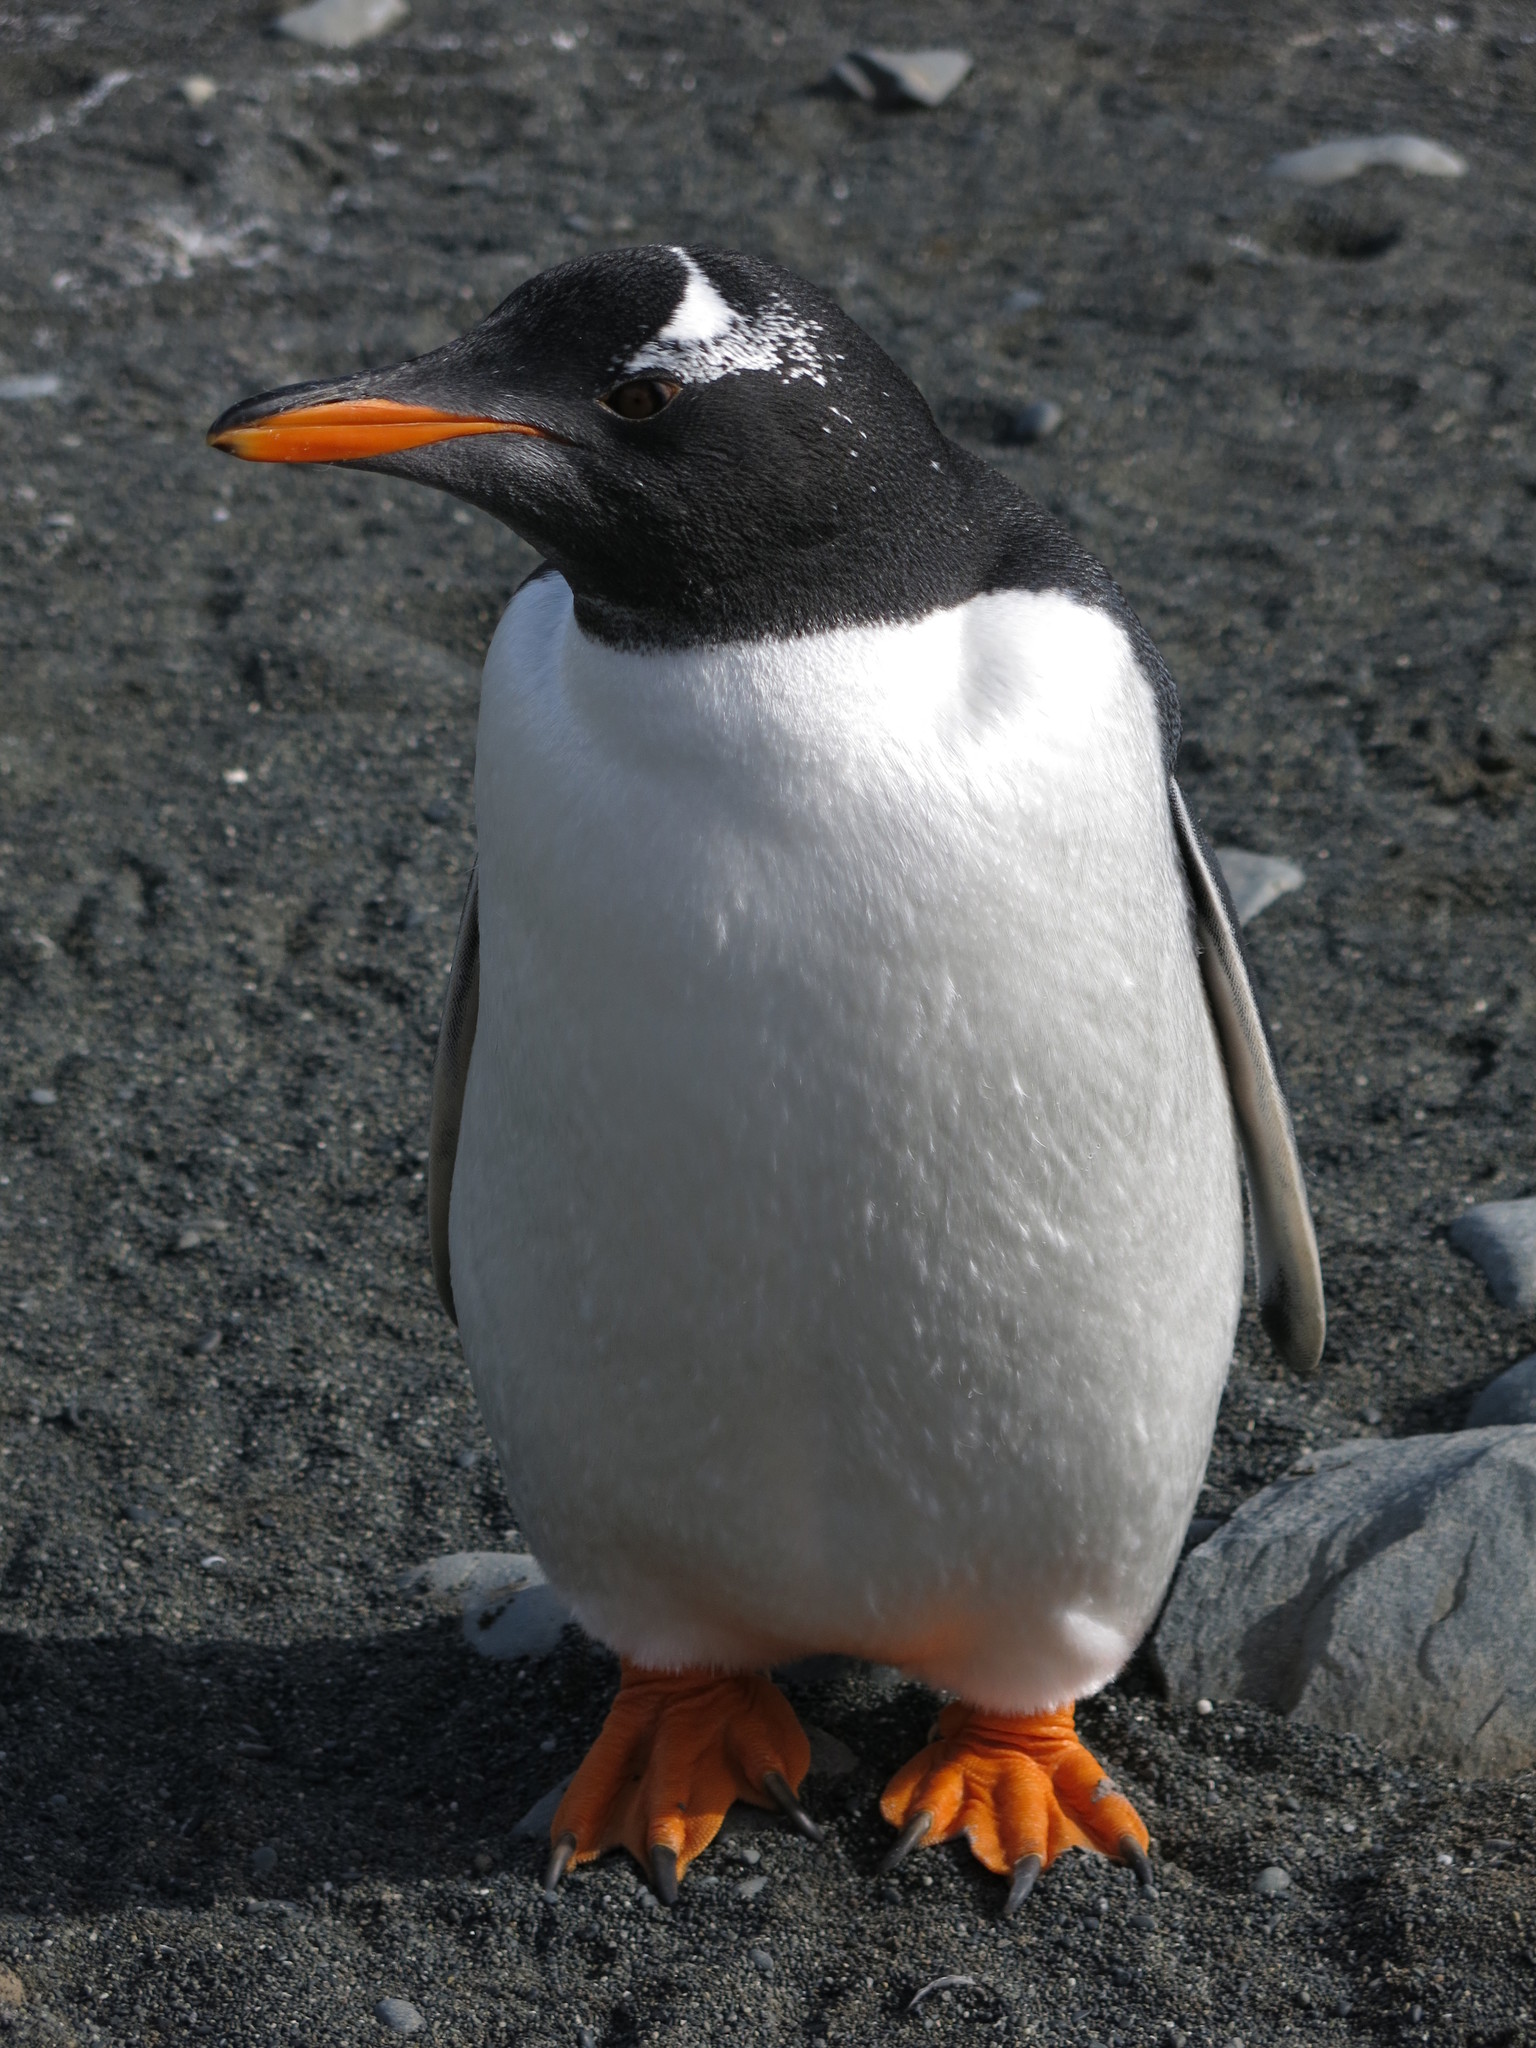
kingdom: Animalia
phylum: Chordata
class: Aves
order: Sphenisciformes
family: Spheniscidae
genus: Pygoscelis
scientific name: Pygoscelis papua
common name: Gentoo penguin
